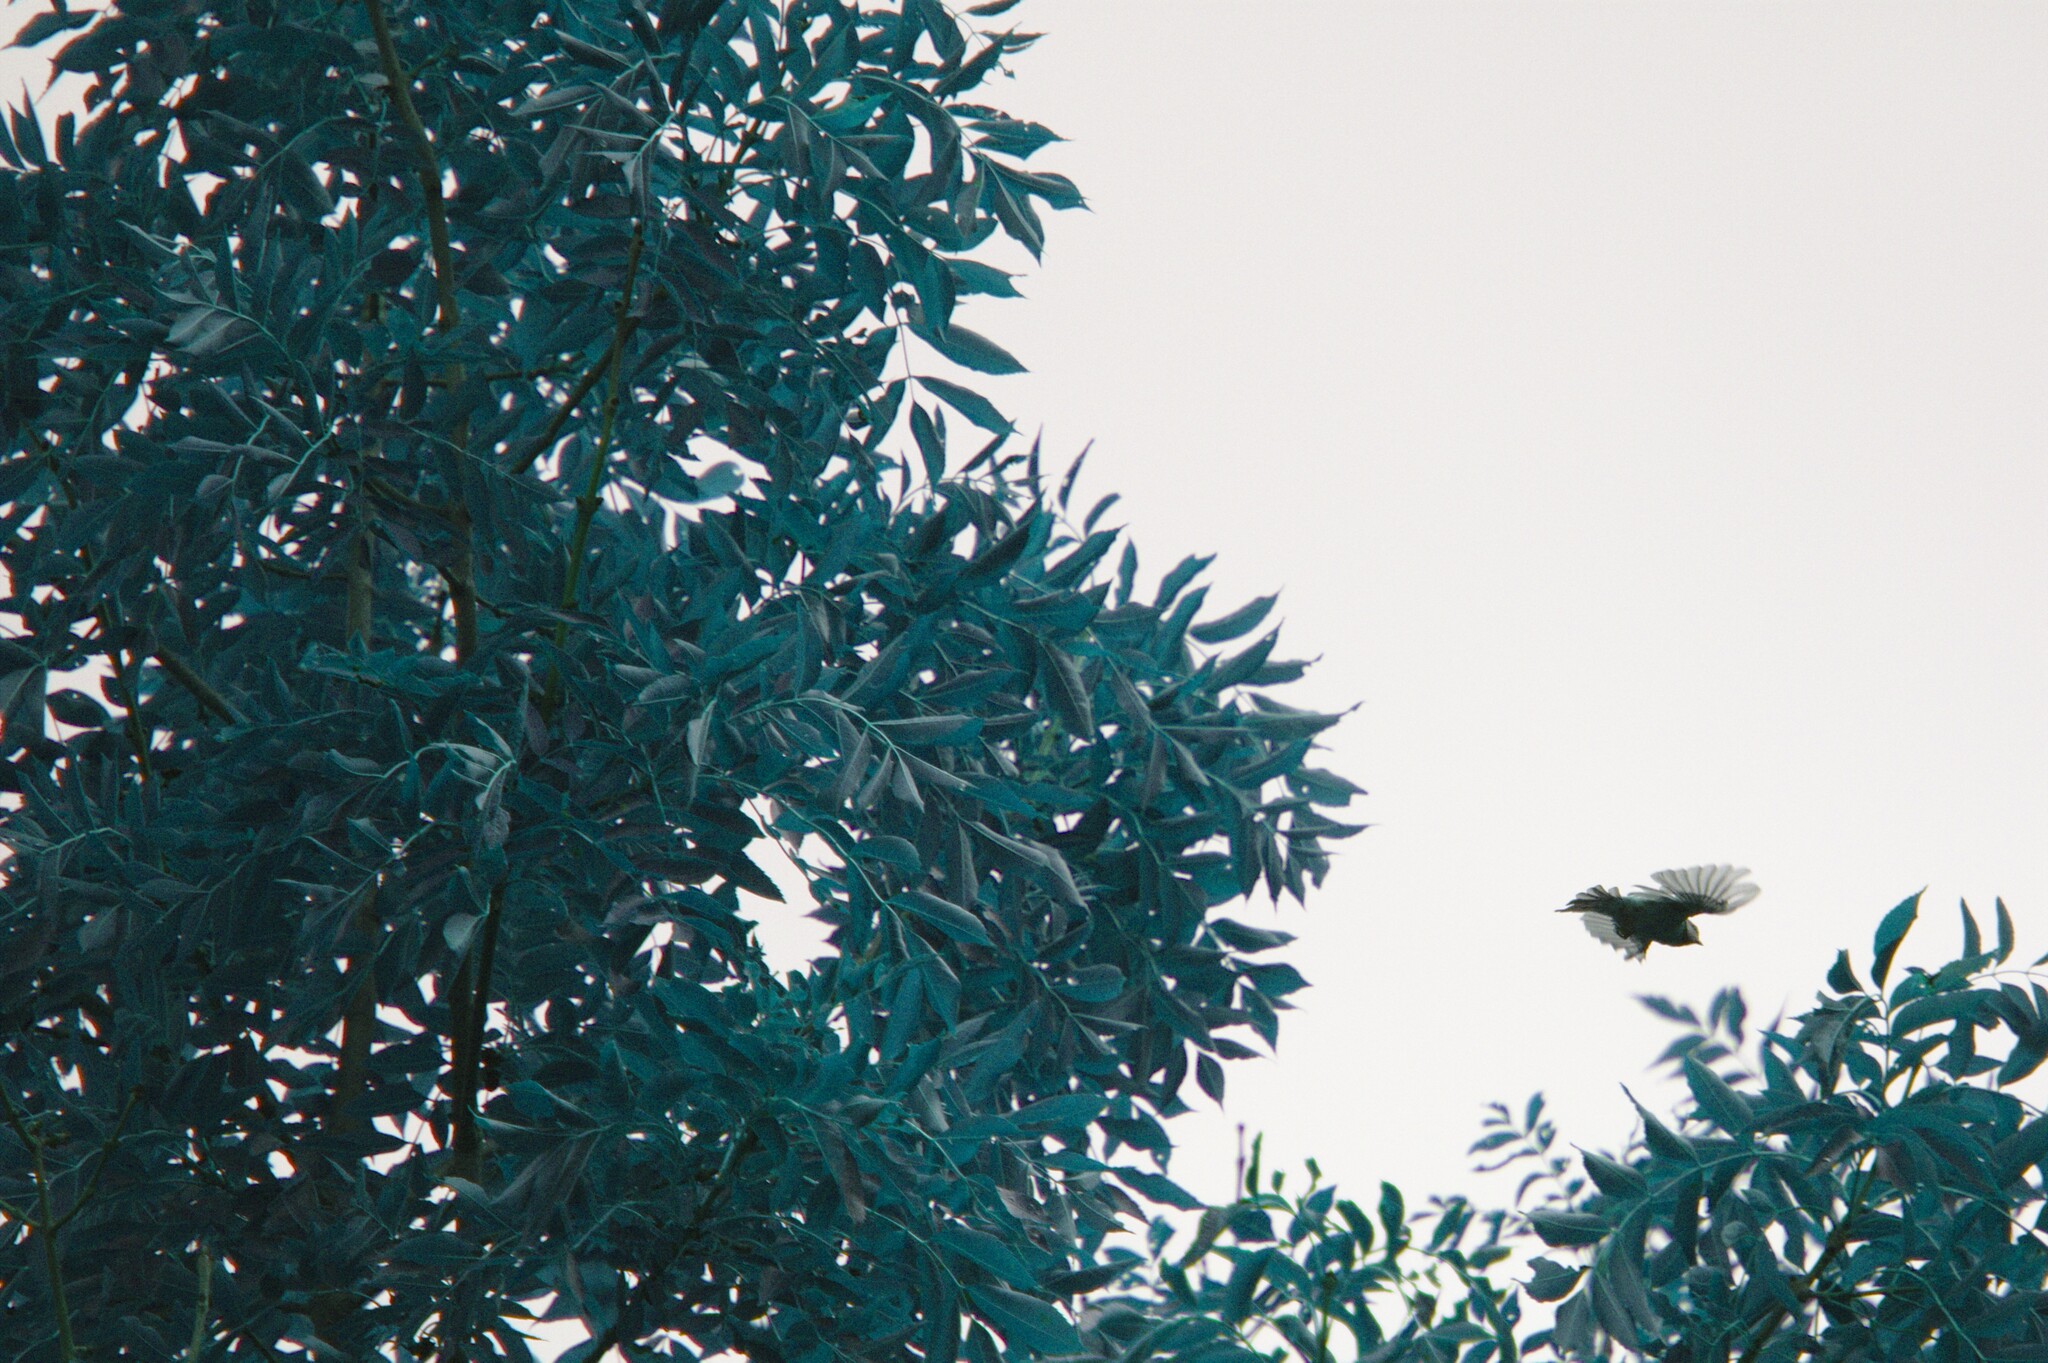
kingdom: Animalia
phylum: Chordata
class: Aves
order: Passeriformes
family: Paridae
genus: Parus
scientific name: Parus major
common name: Great tit
